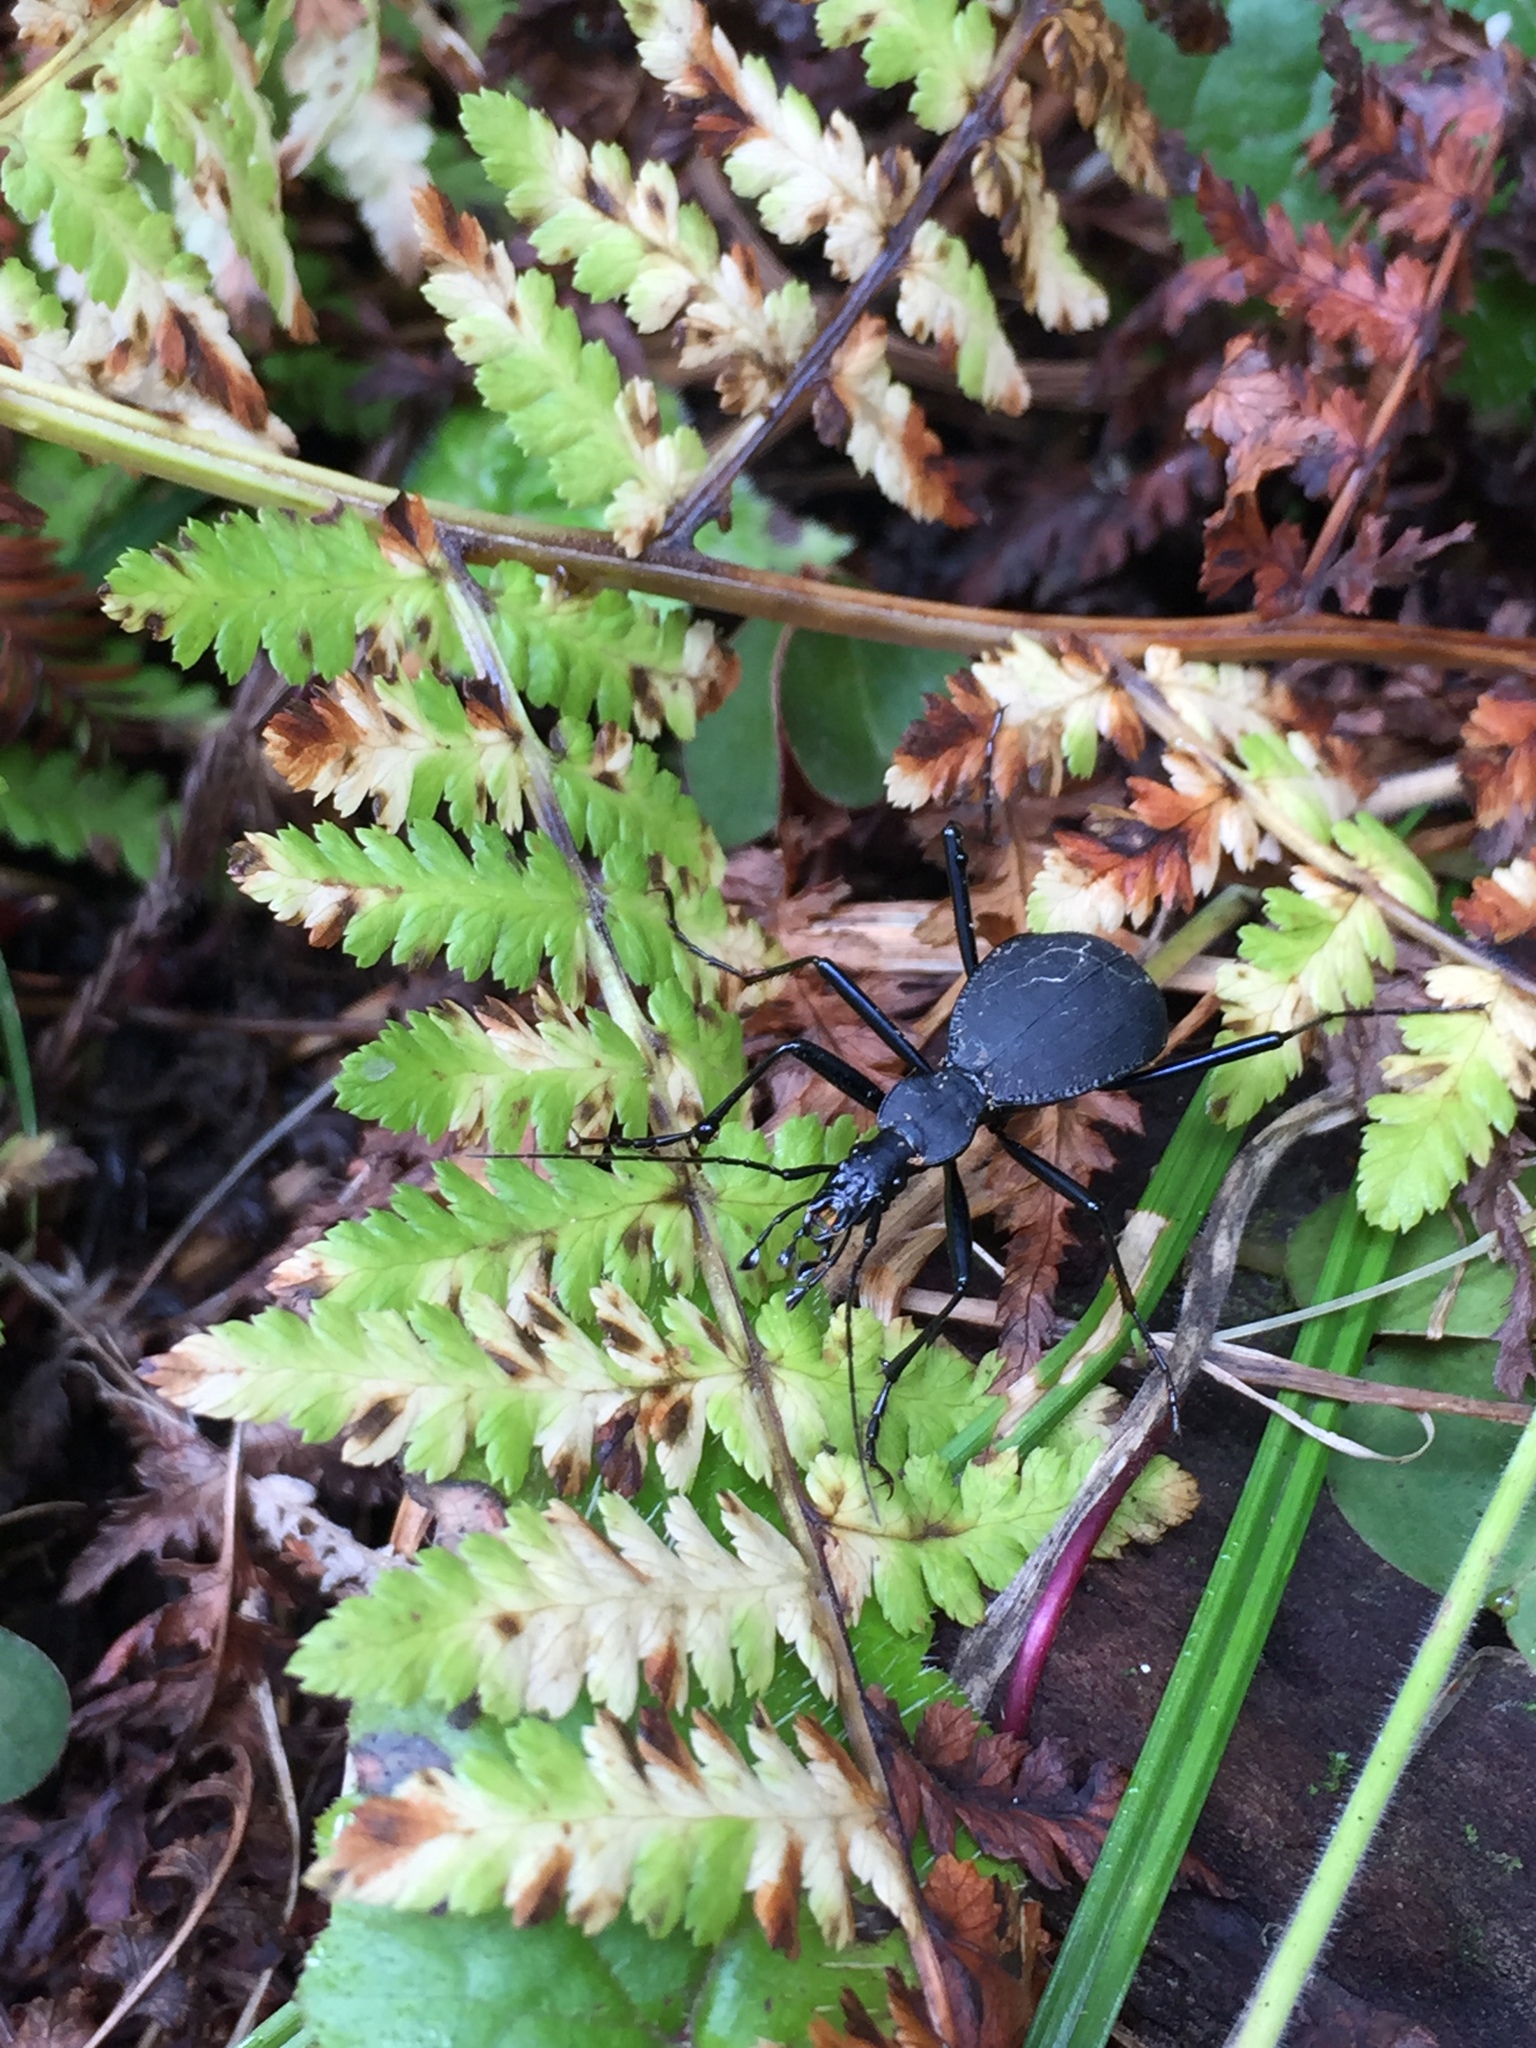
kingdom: Animalia
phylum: Arthropoda
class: Insecta
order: Coleoptera
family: Carabidae
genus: Scaphinotus
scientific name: Scaphinotus velutinus
